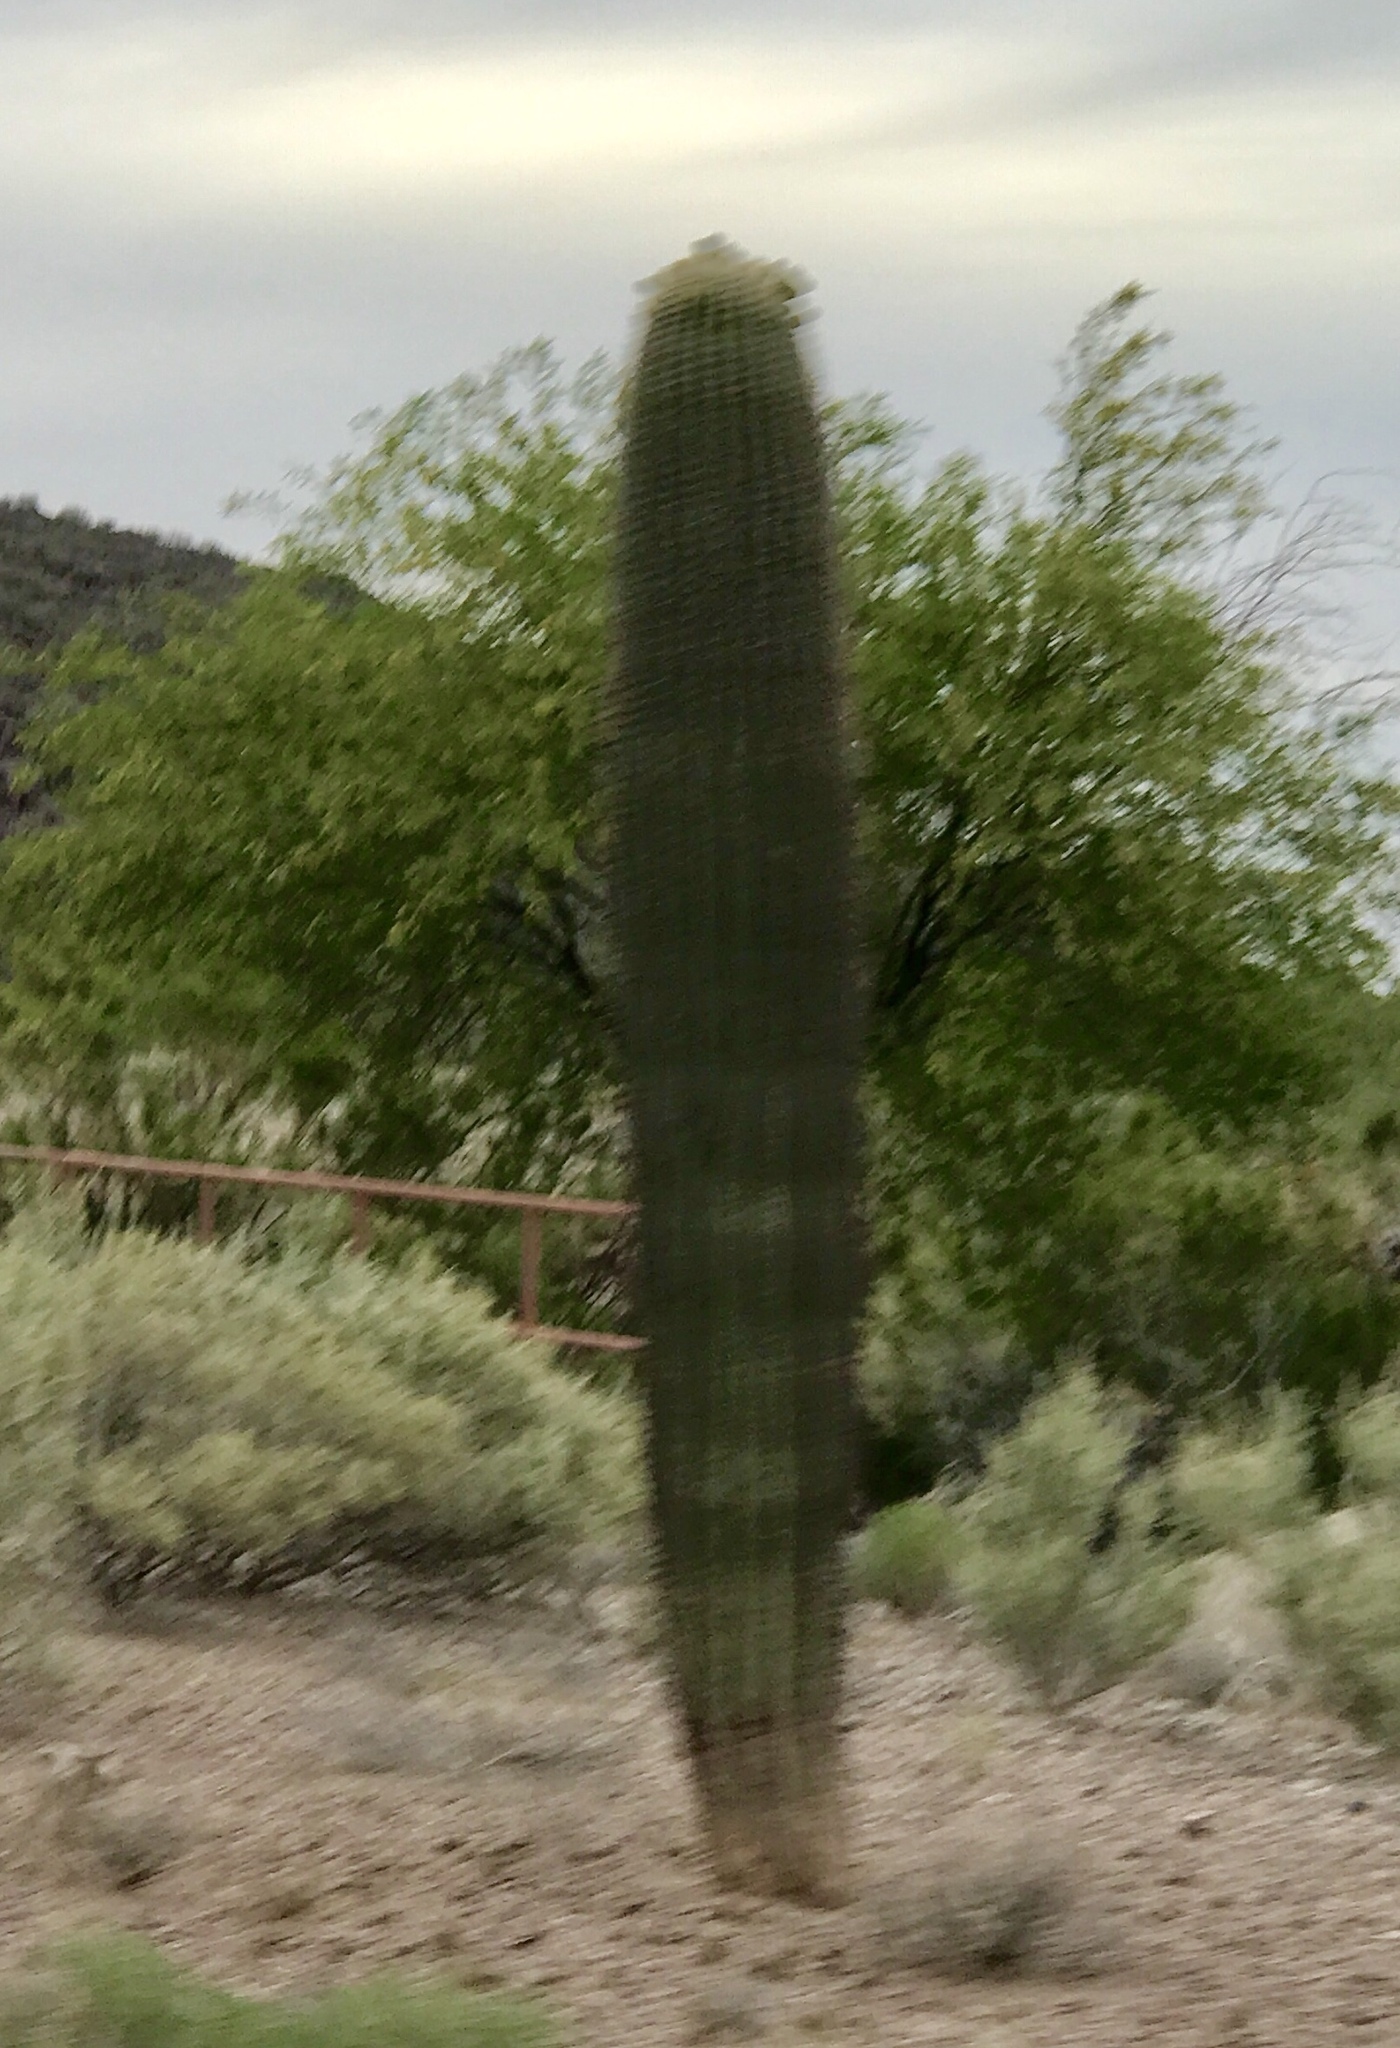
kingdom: Plantae
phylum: Tracheophyta
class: Magnoliopsida
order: Caryophyllales
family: Cactaceae
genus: Carnegiea
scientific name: Carnegiea gigantea
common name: Saguaro
